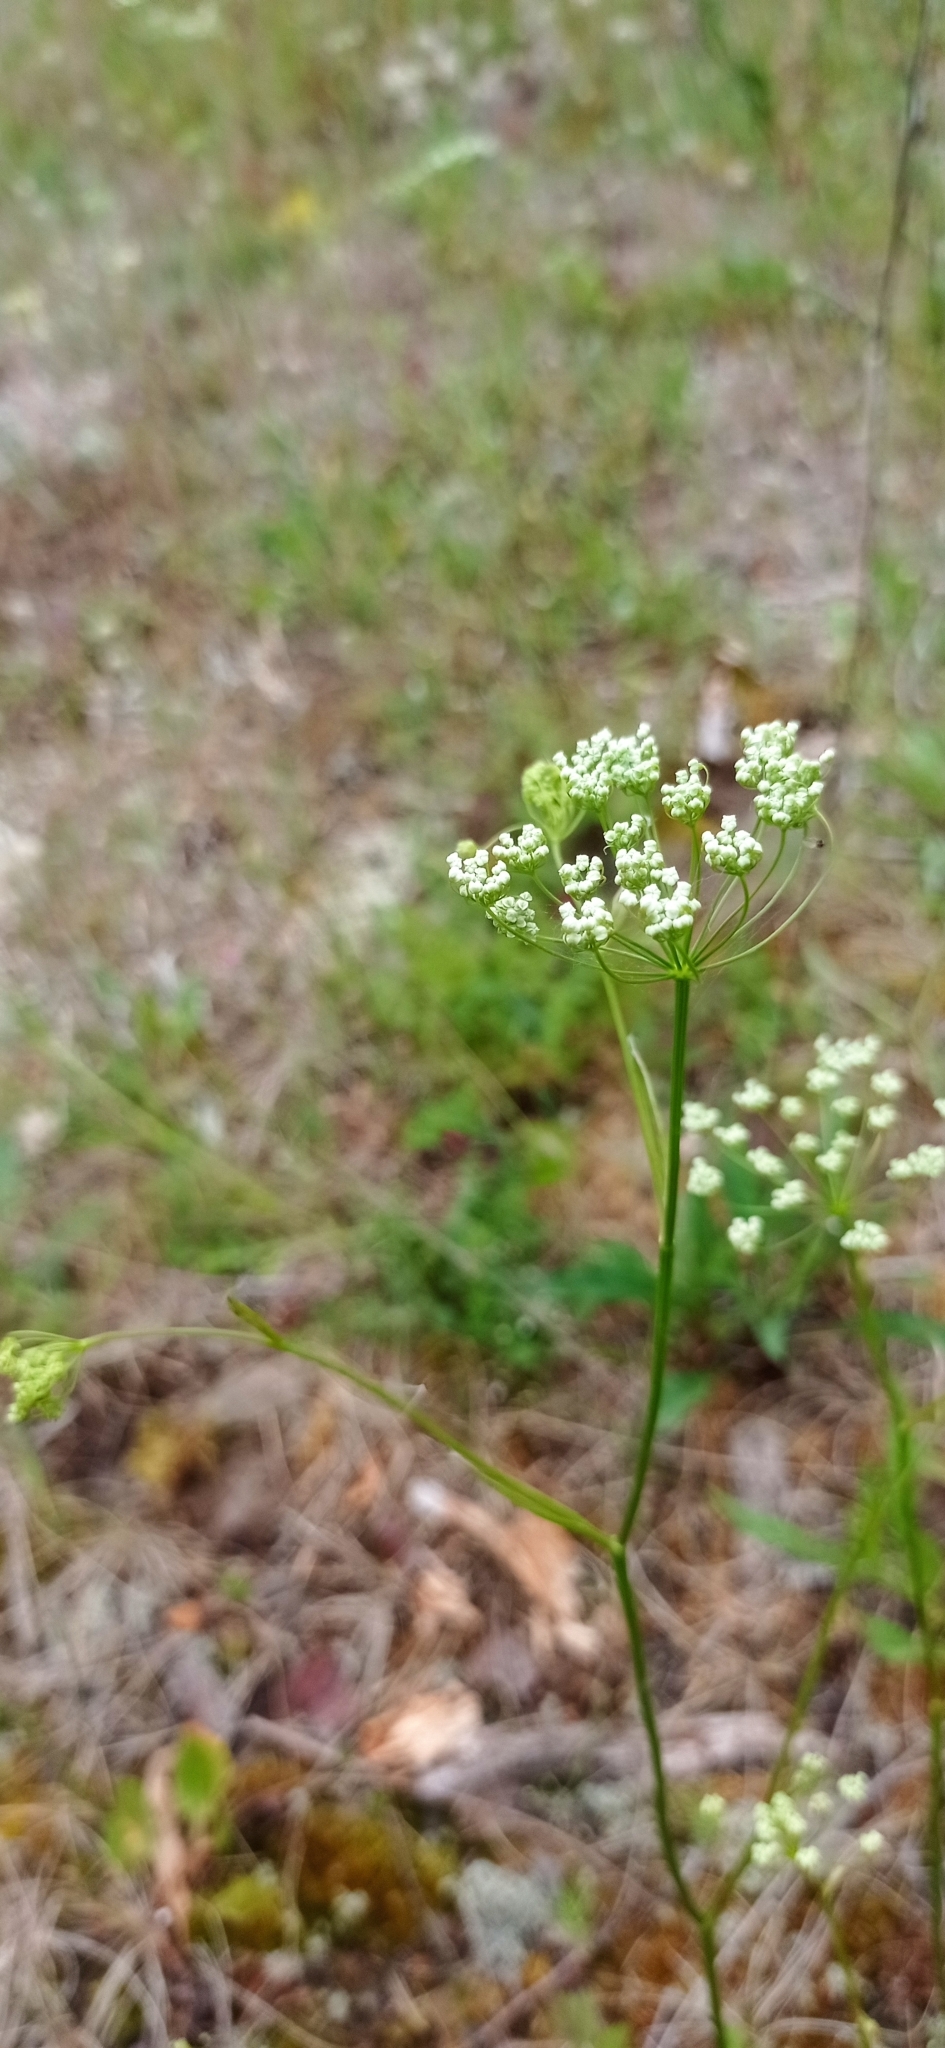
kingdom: Plantae
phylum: Tracheophyta
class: Magnoliopsida
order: Apiales
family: Apiaceae
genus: Pimpinella
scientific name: Pimpinella saxifraga
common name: Burnet-saxifrage
